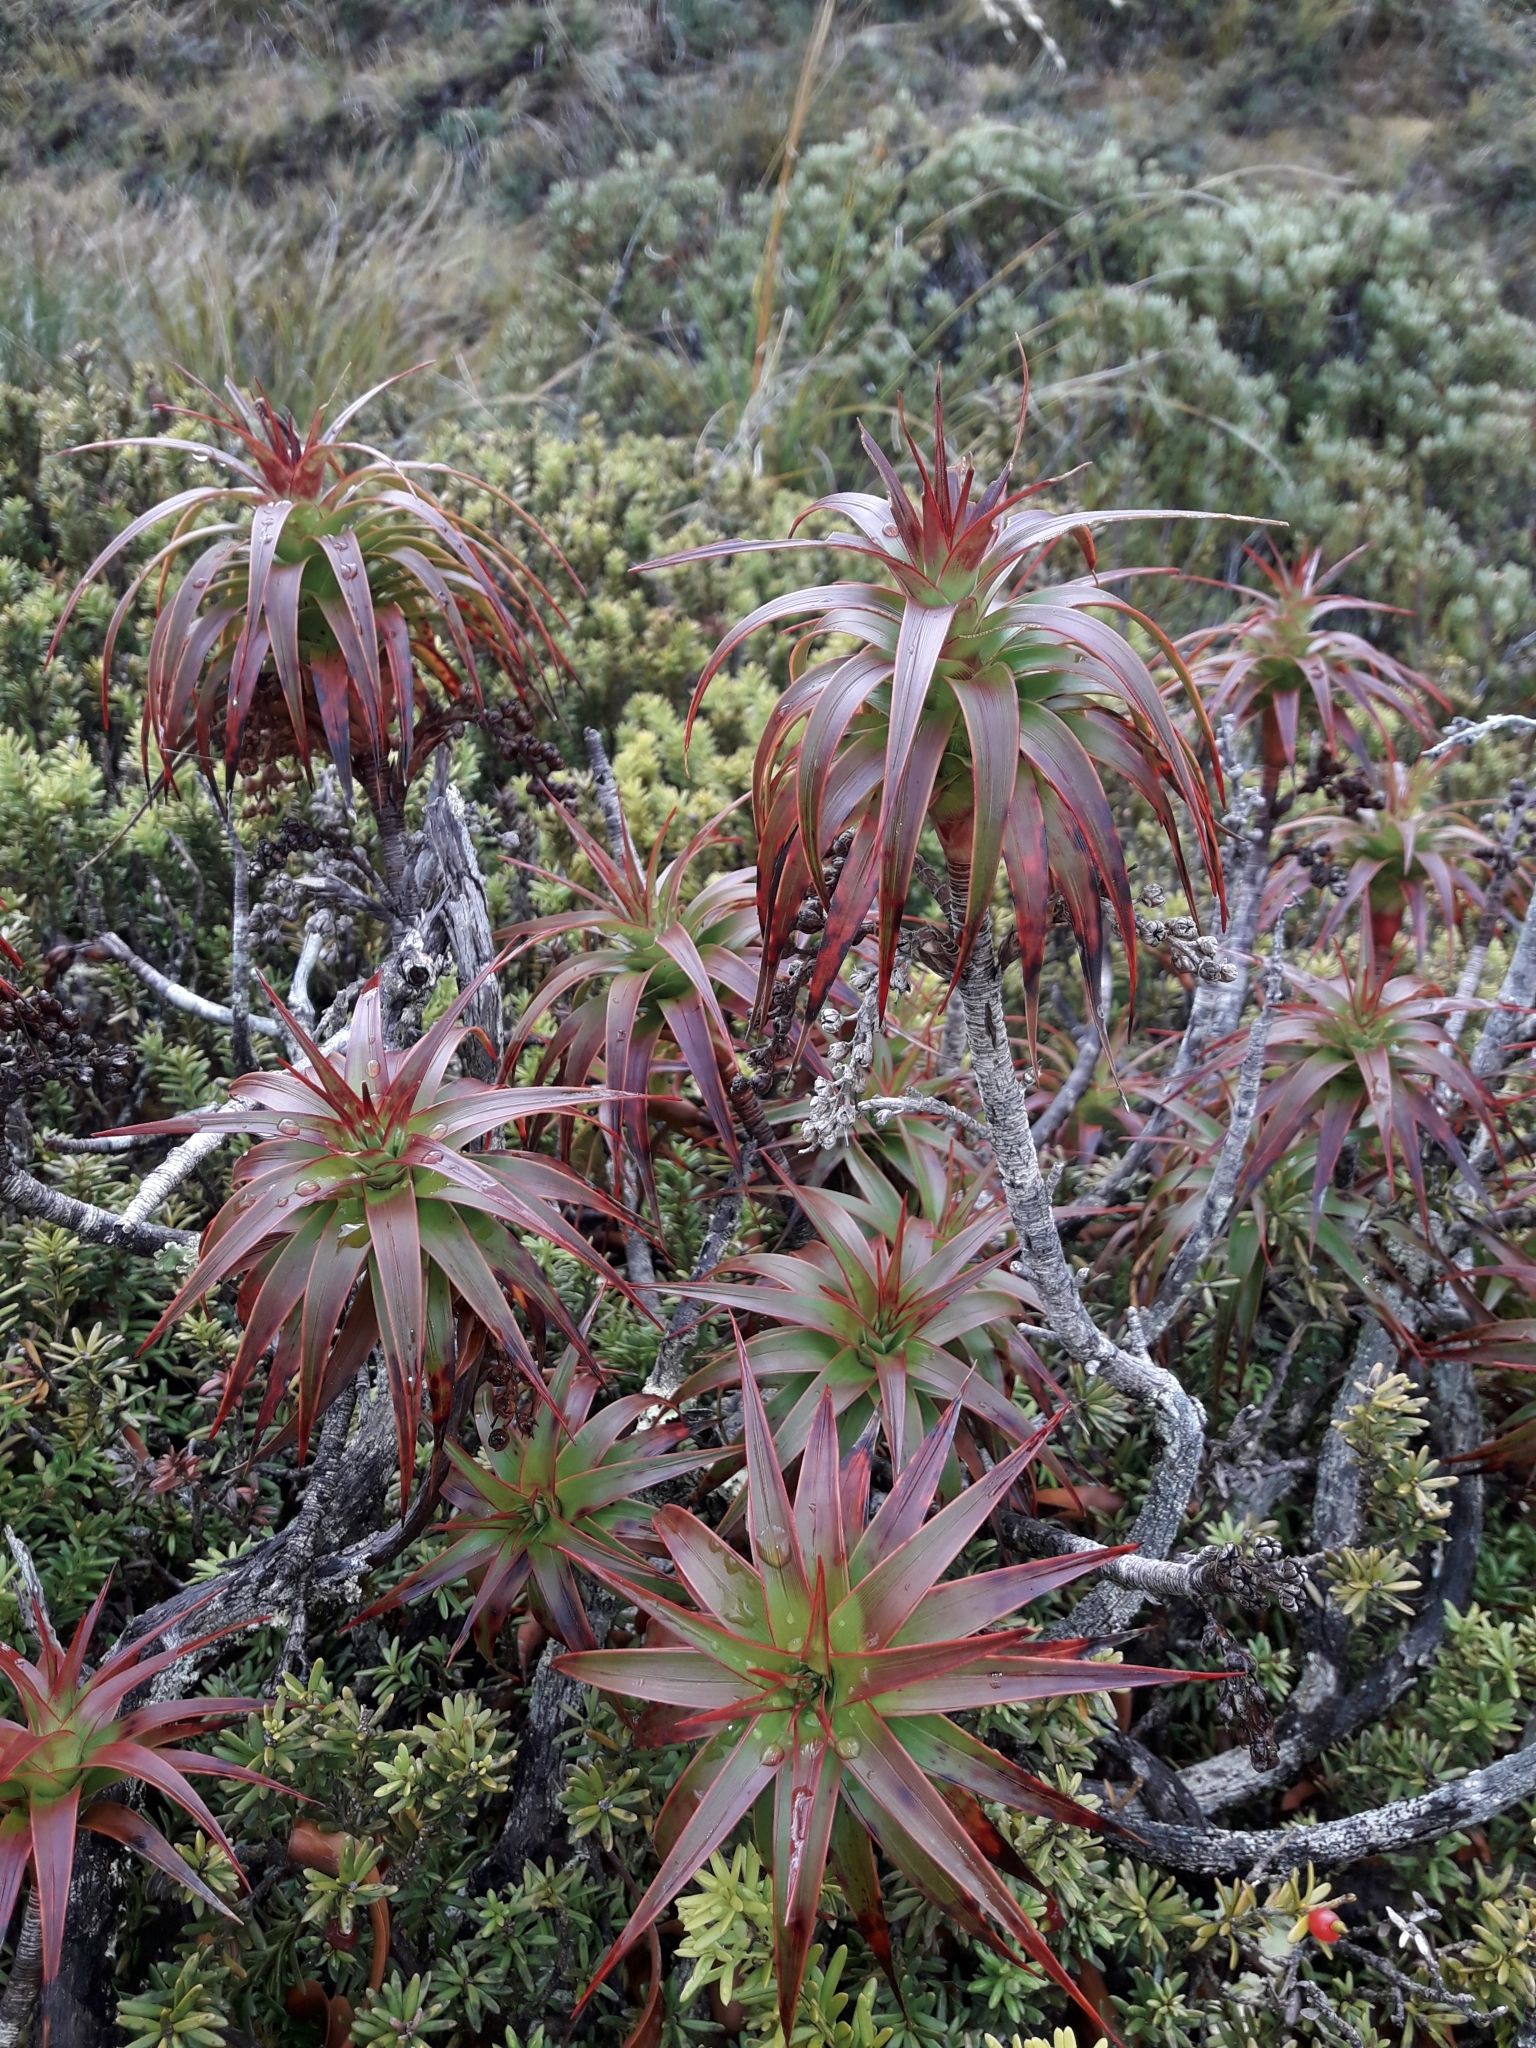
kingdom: Plantae
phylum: Tracheophyta
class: Magnoliopsida
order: Ericales
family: Ericaceae
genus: Dracophyllum
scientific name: Dracophyllum menziesii
